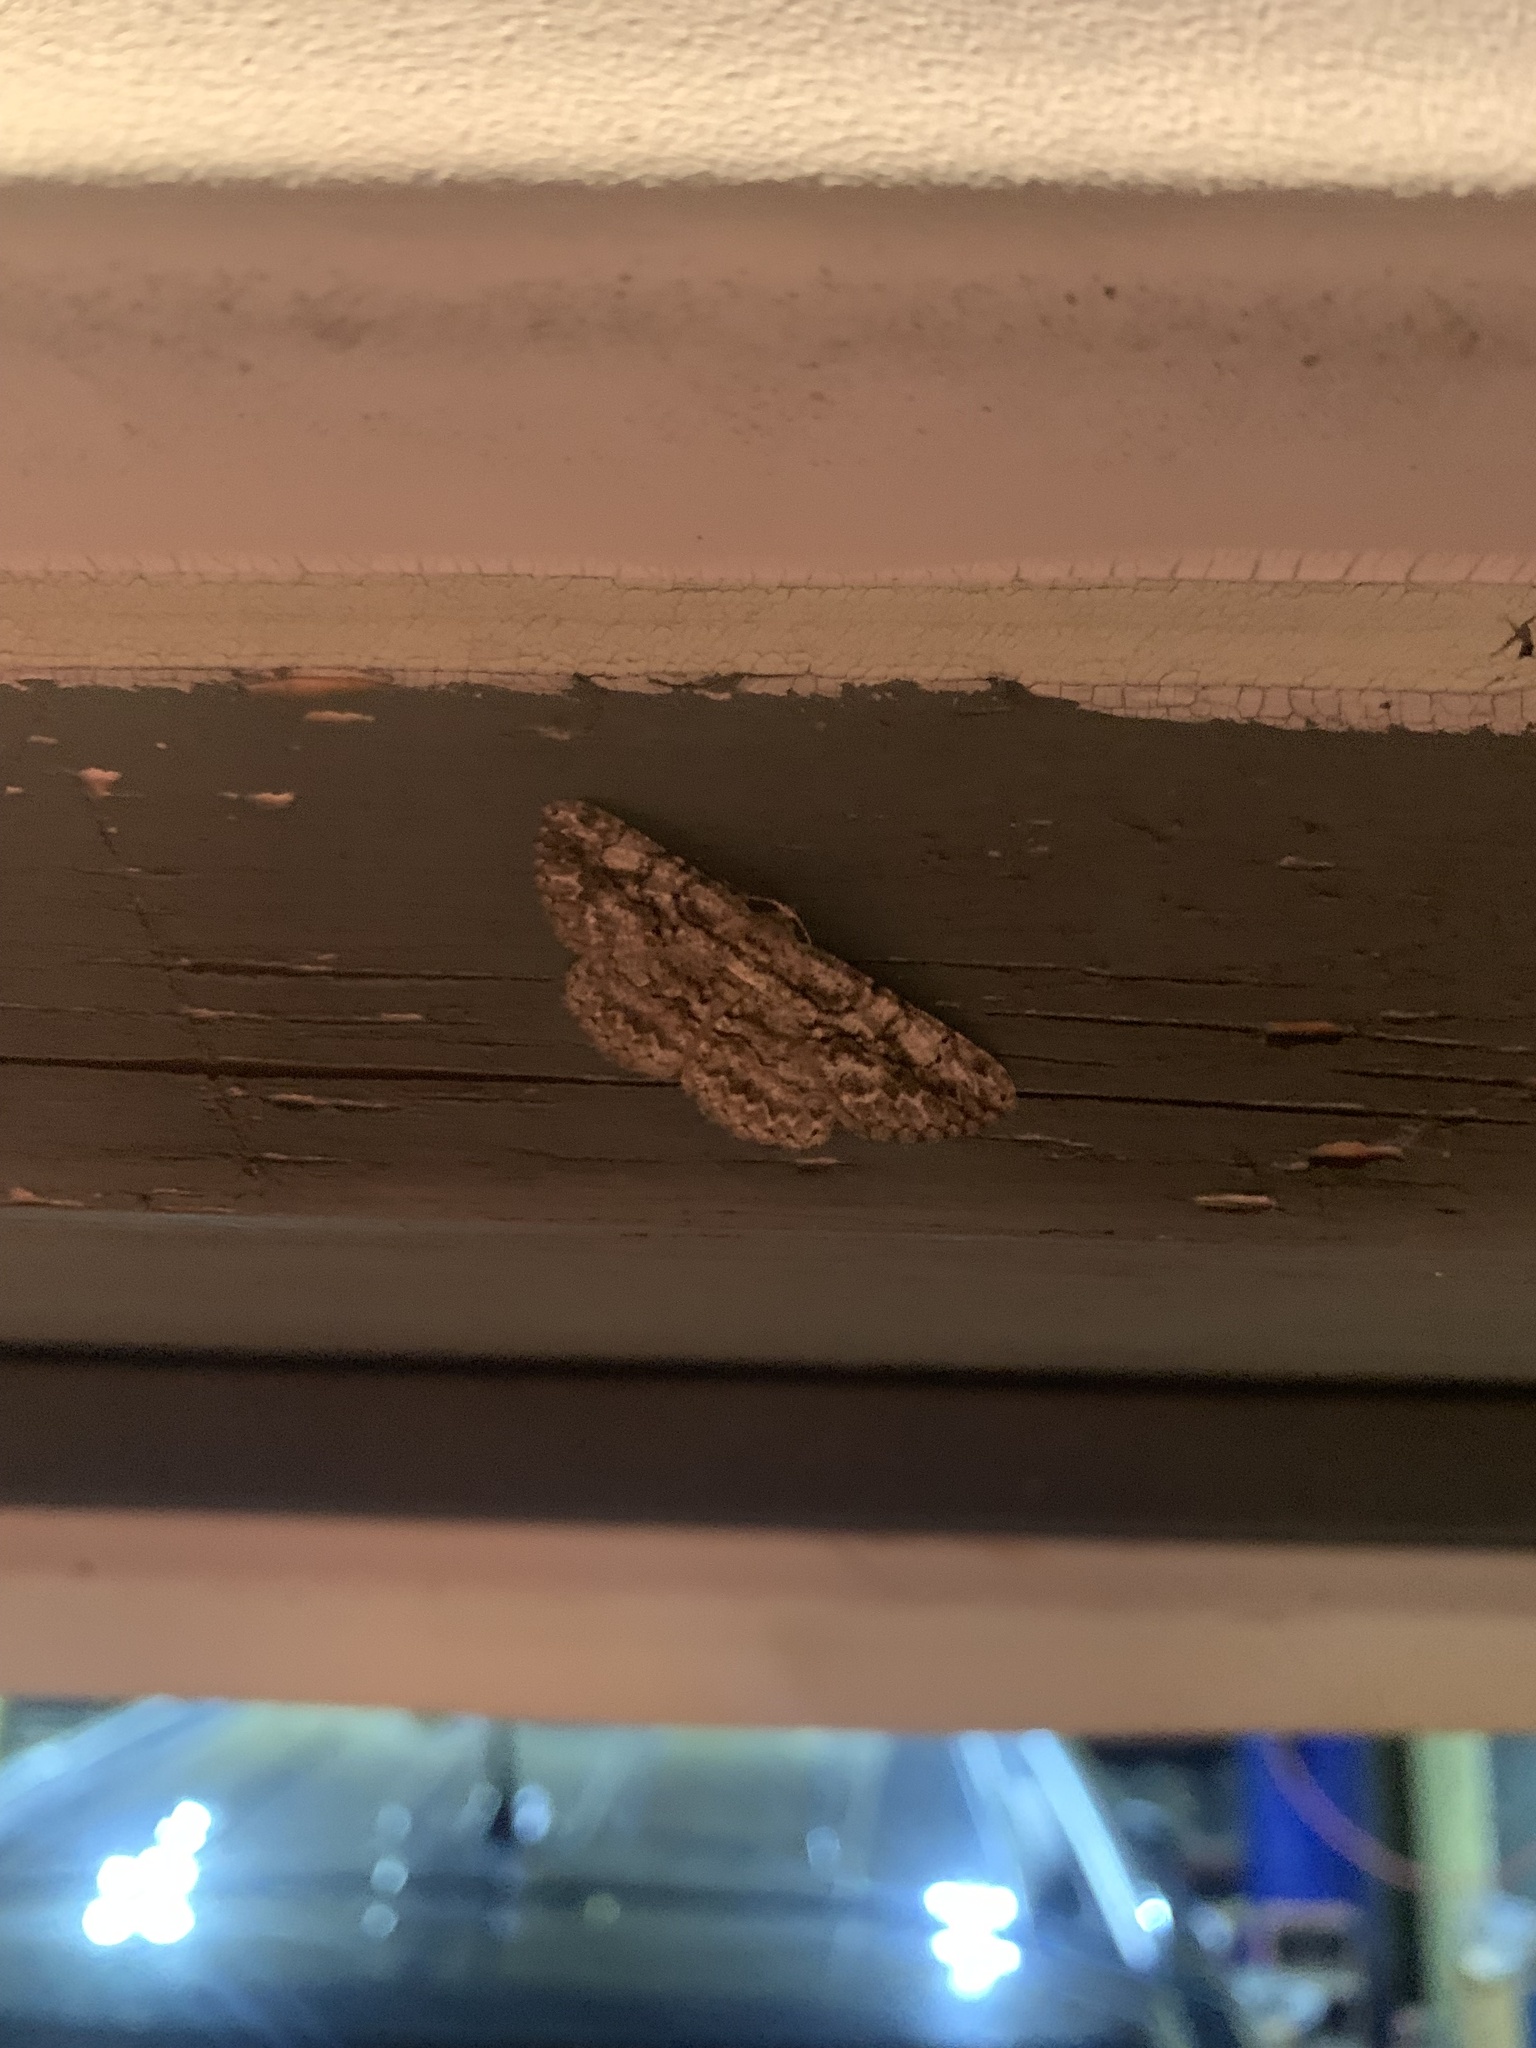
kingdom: Animalia
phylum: Arthropoda
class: Insecta
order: Lepidoptera
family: Geometridae
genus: Anavitrinella
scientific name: Anavitrinella pampinaria
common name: Common gray
